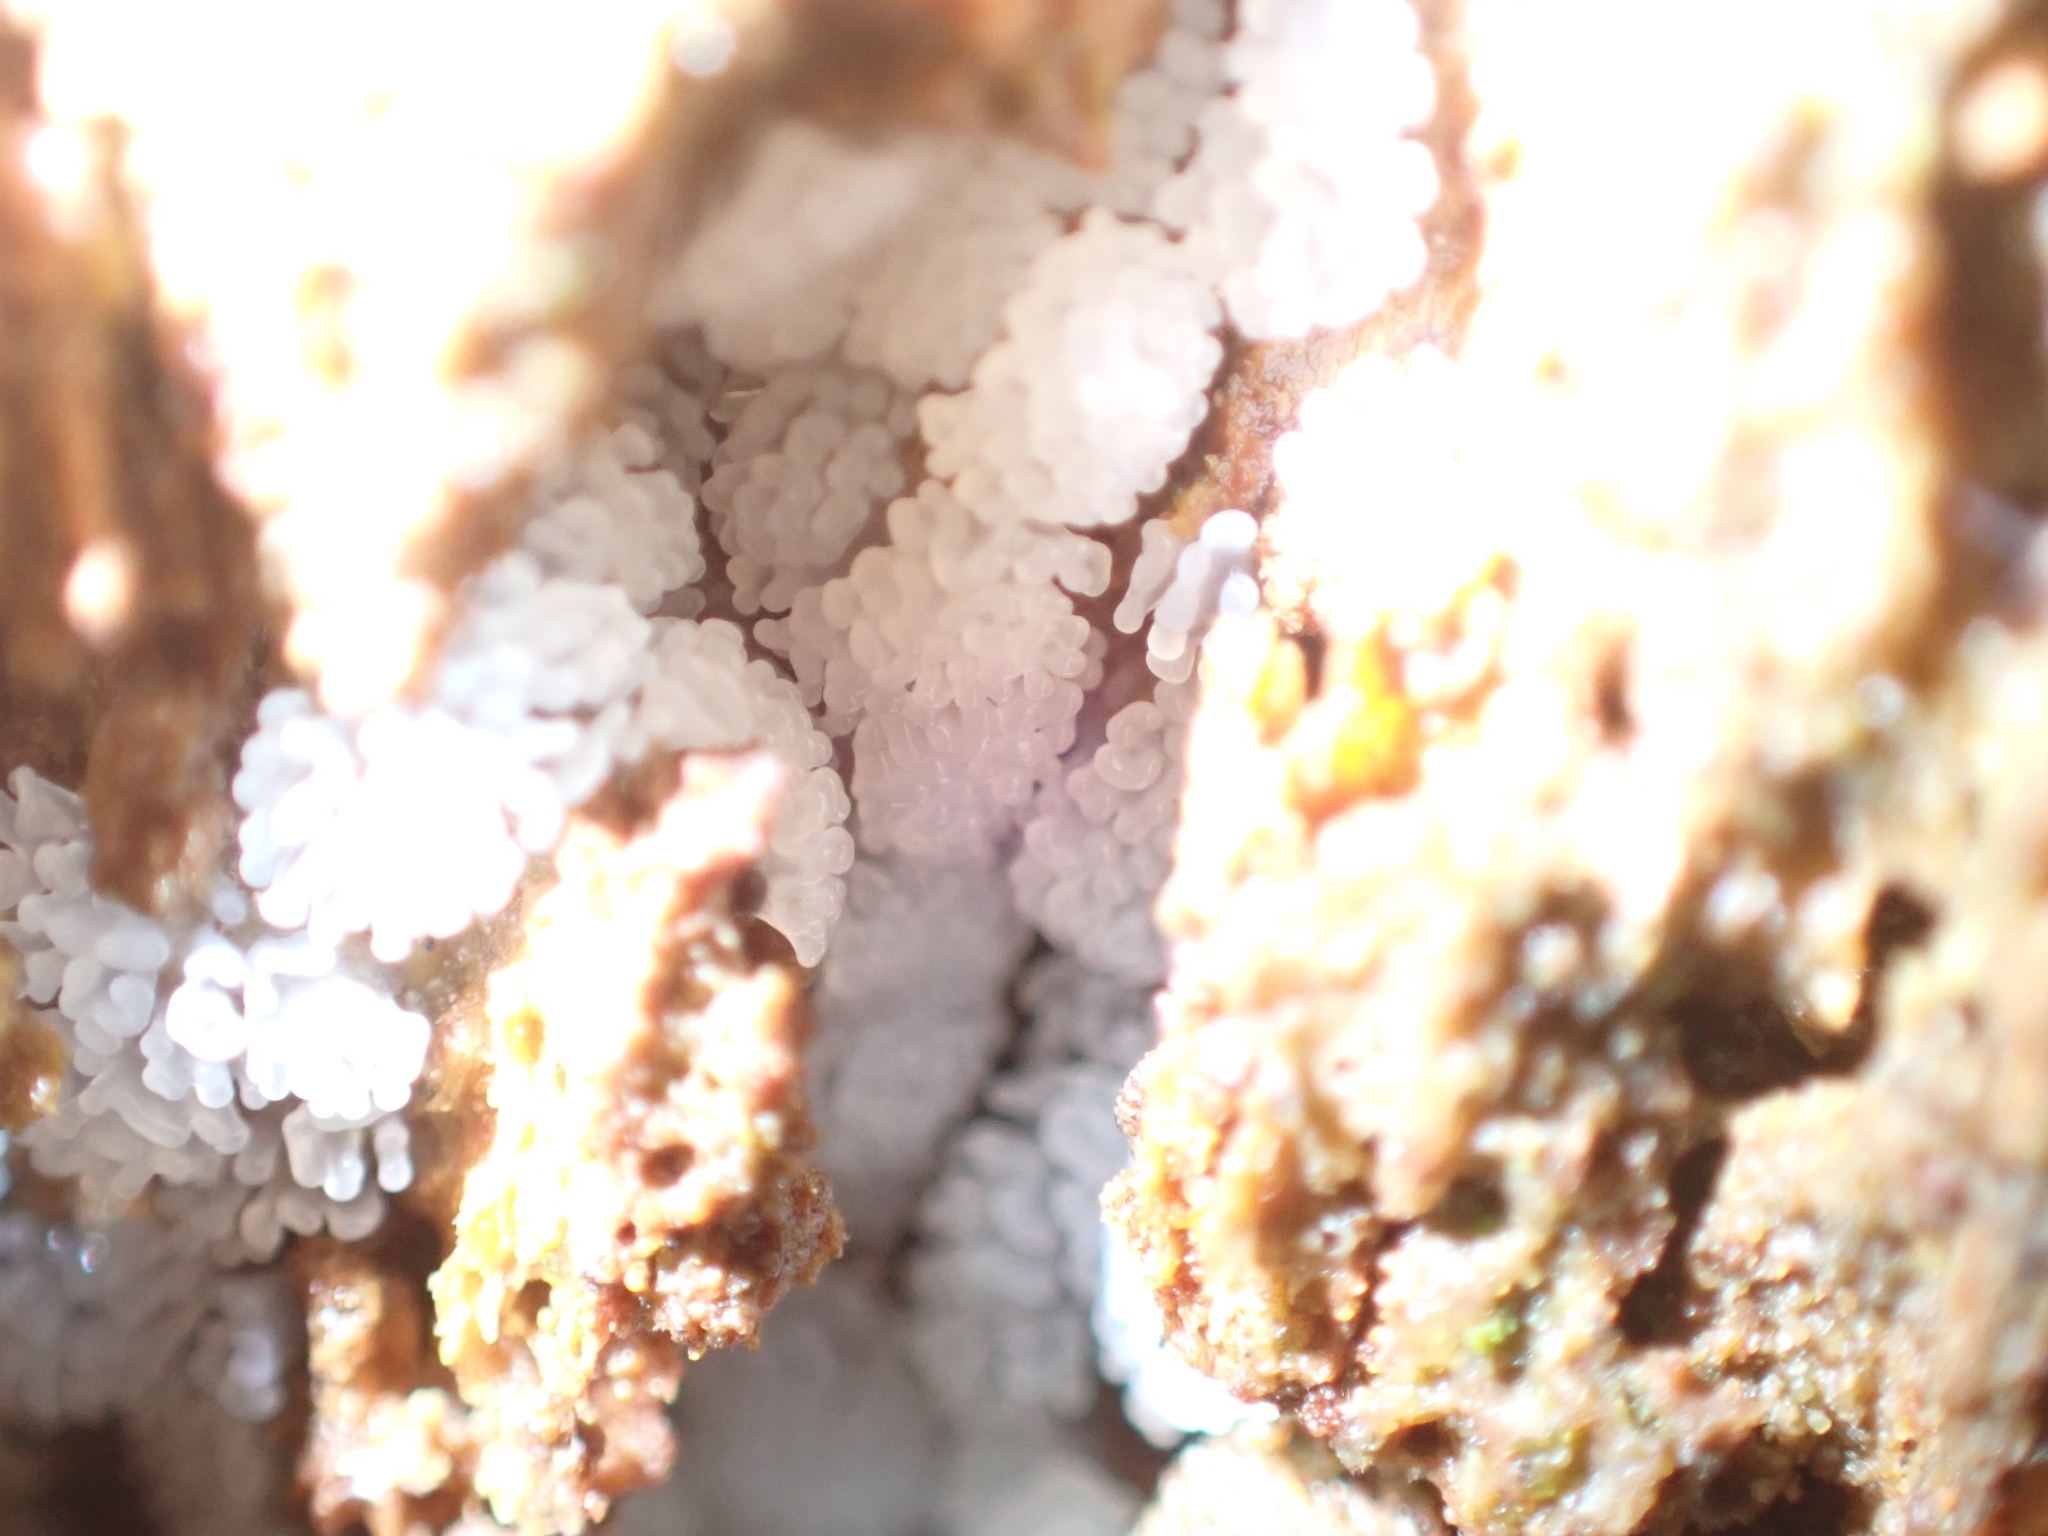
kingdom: Protozoa
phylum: Mycetozoa
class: Protosteliomycetes
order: Ceratiomyxales
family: Ceratiomyxaceae
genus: Ceratiomyxa
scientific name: Ceratiomyxa fruticulosa
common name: Honeycomb coral slime mold
